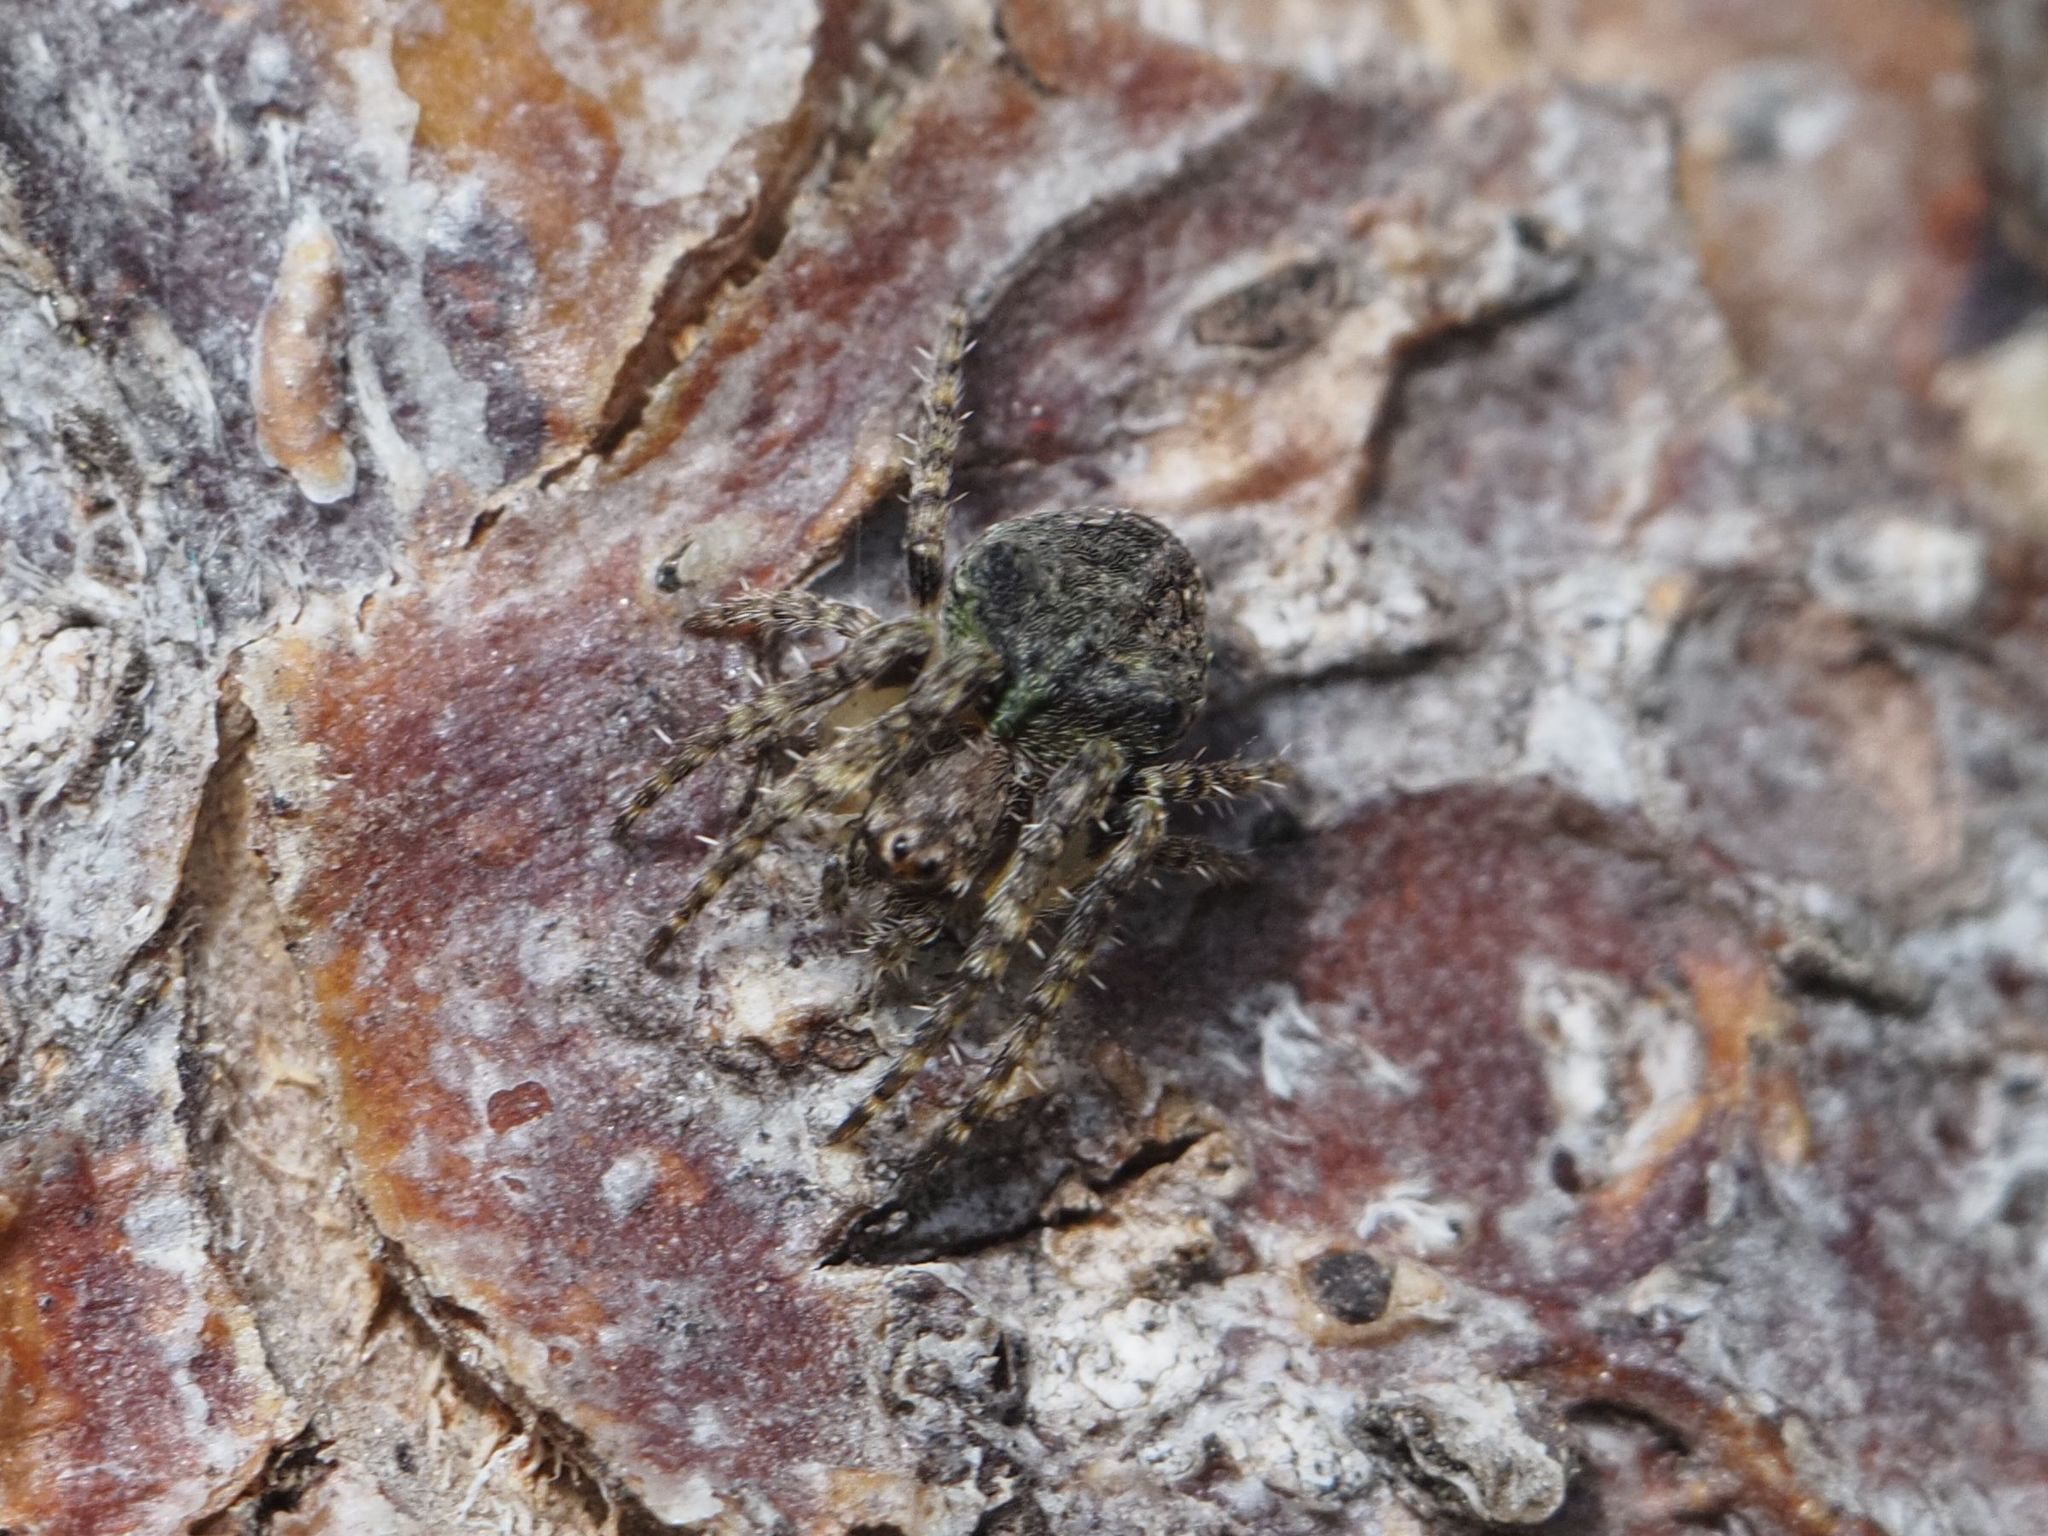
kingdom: Animalia
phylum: Arthropoda
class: Arachnida
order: Araneae
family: Araneidae
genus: Gibbaranea
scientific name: Gibbaranea gibbosa
